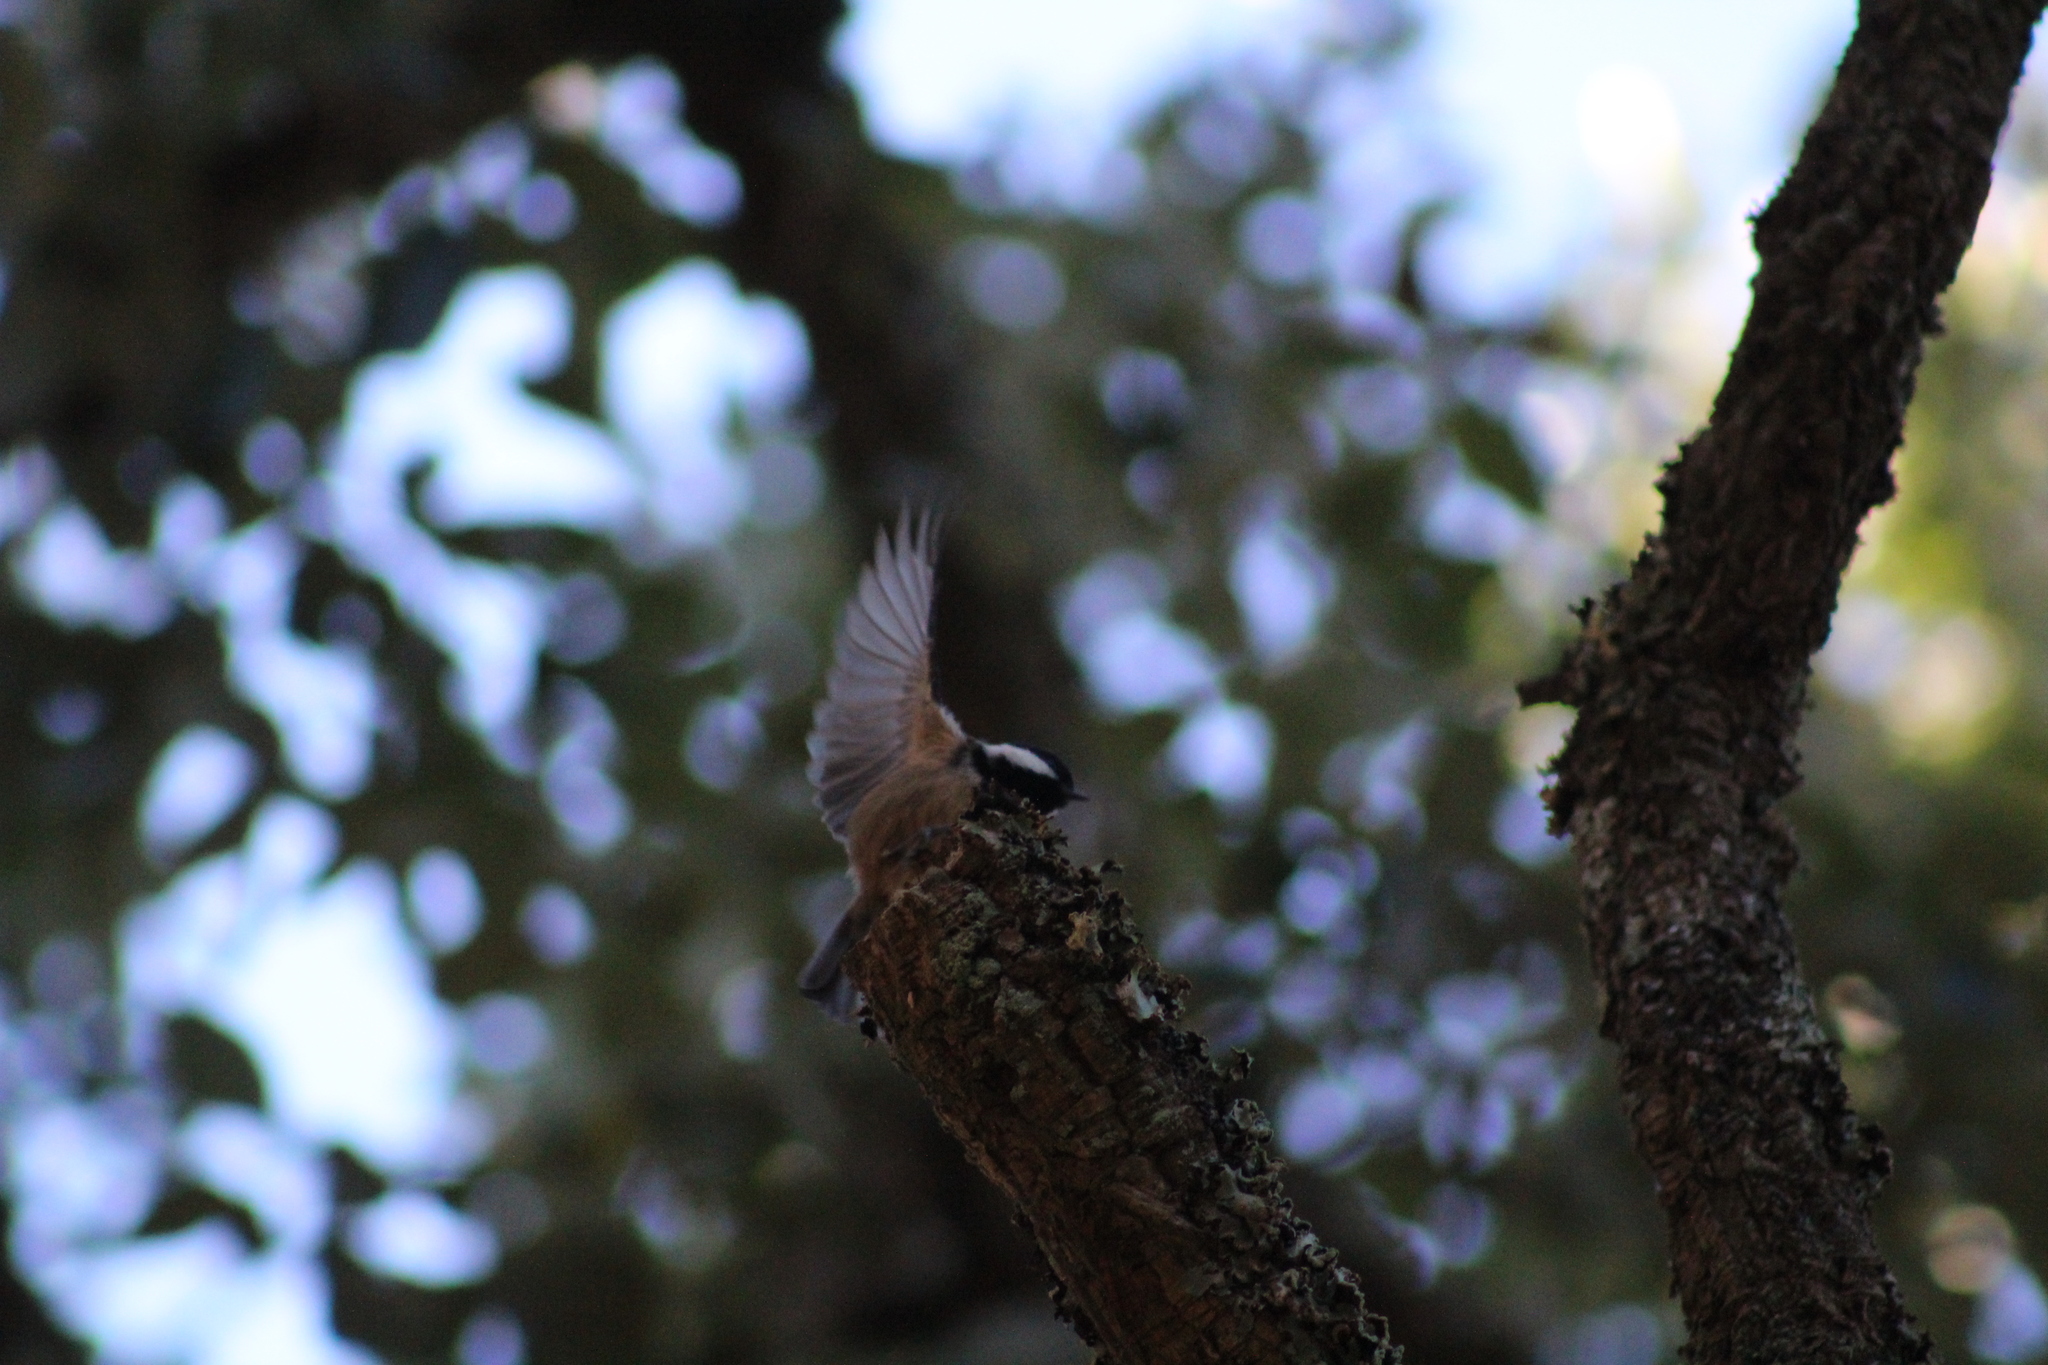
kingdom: Animalia
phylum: Chordata
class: Aves
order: Passeriformes
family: Paridae
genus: Periparus
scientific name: Periparus ater
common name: Coal tit
